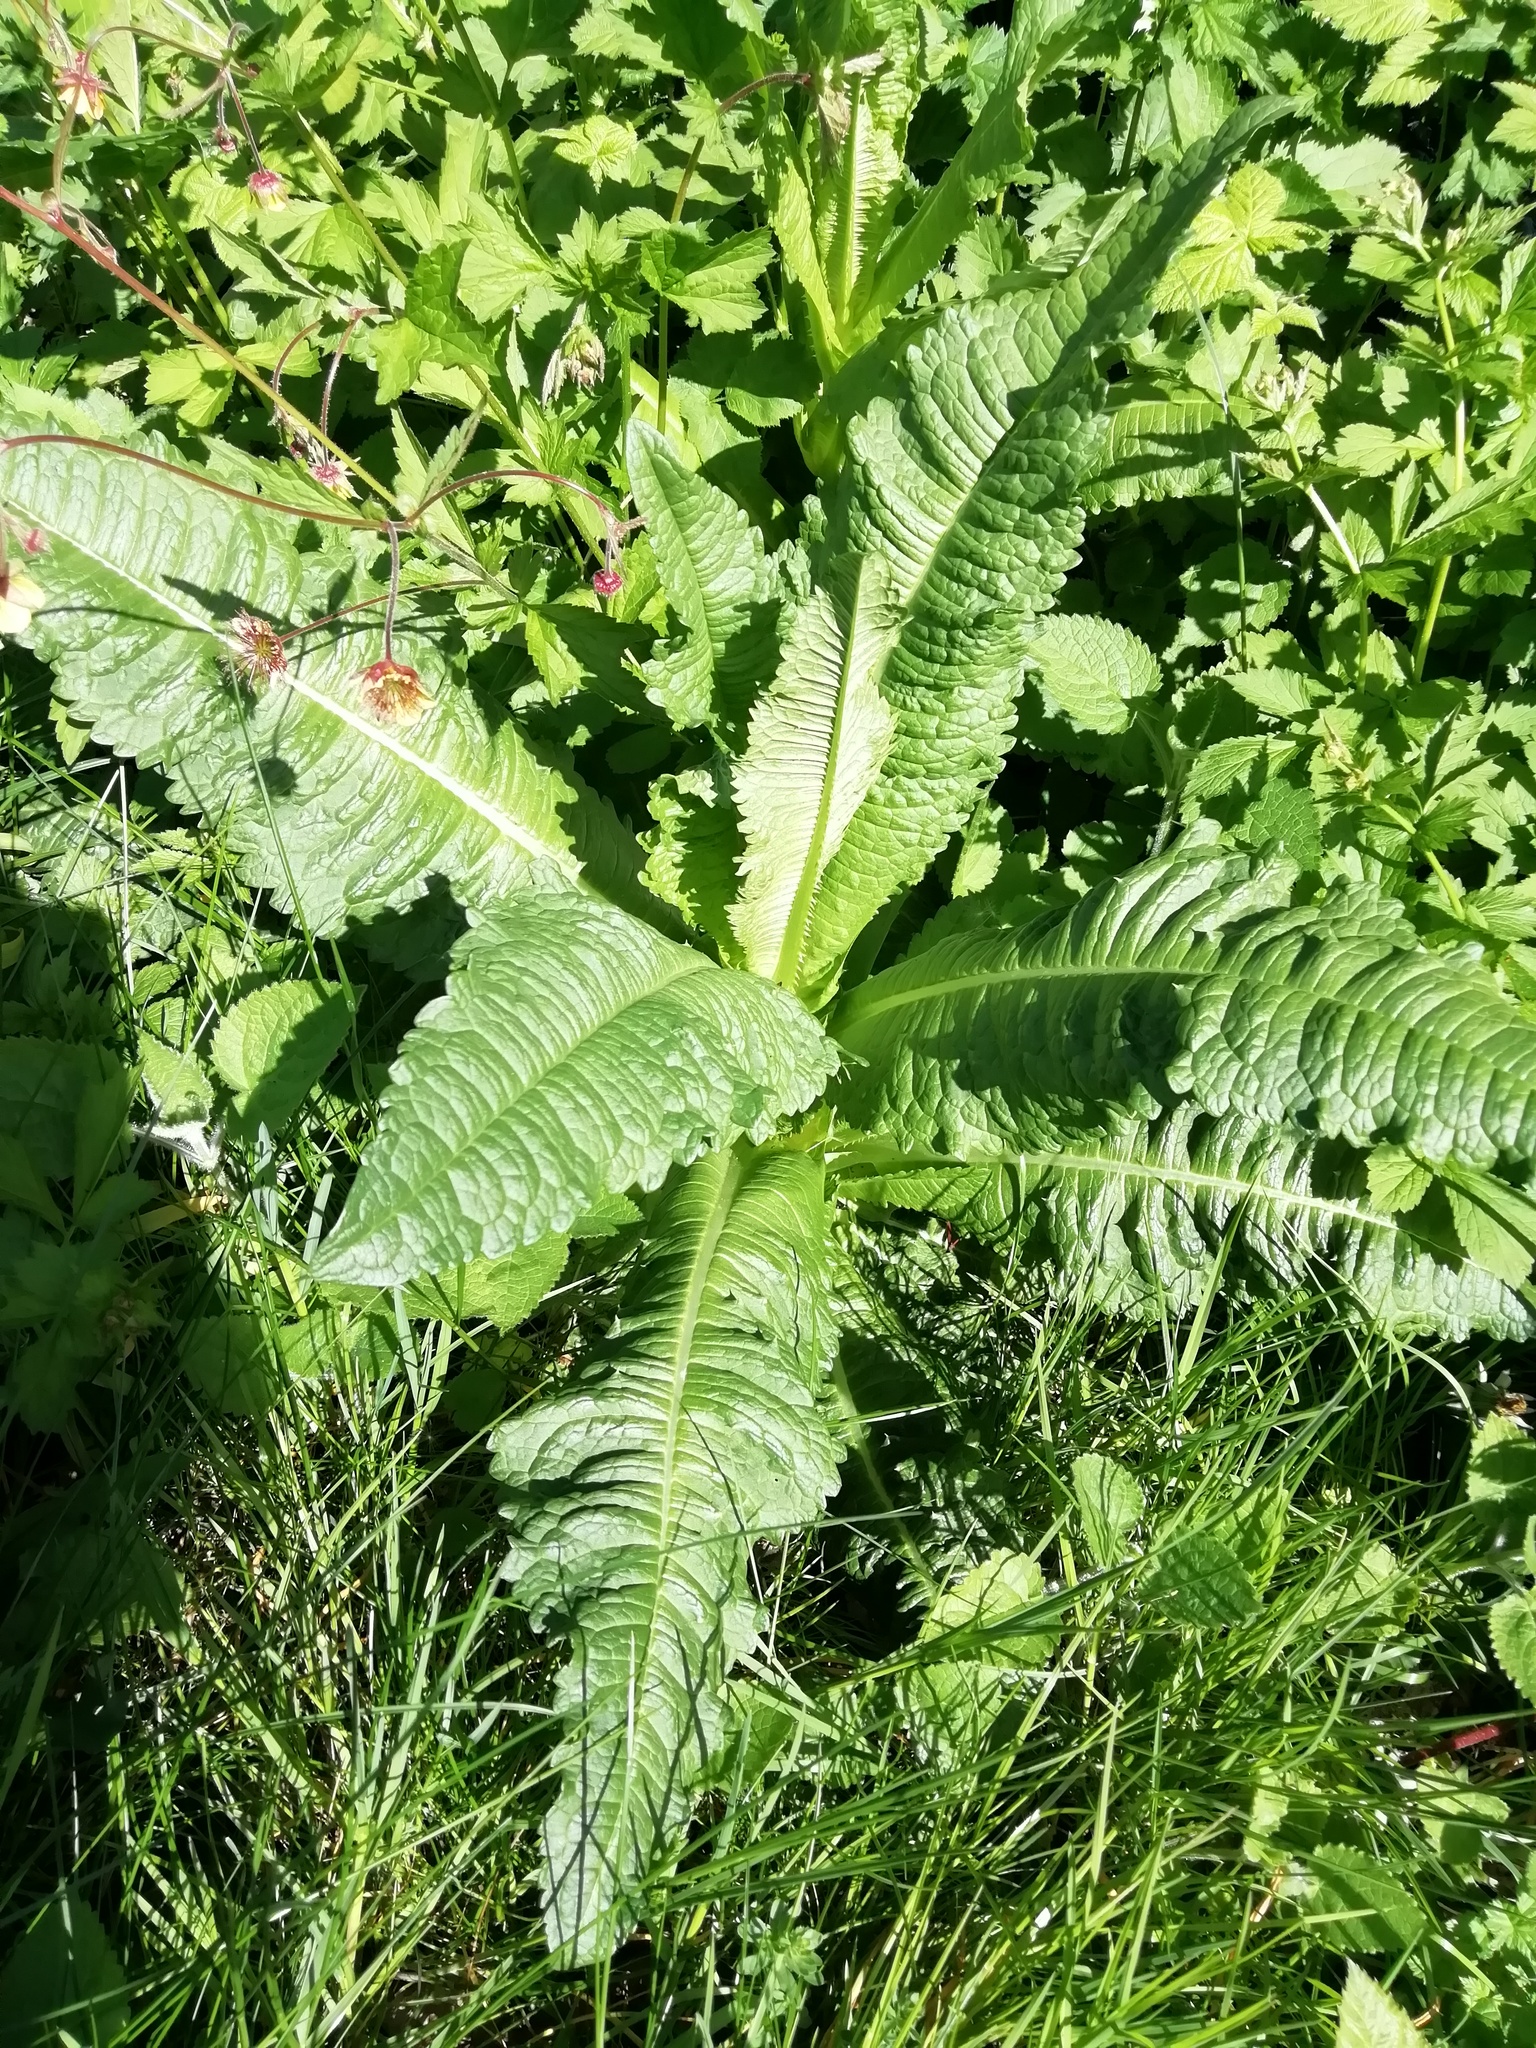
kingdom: Plantae
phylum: Tracheophyta
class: Magnoliopsida
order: Dipsacales
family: Caprifoliaceae
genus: Dipsacus
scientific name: Dipsacus fullonum
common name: Teasel
